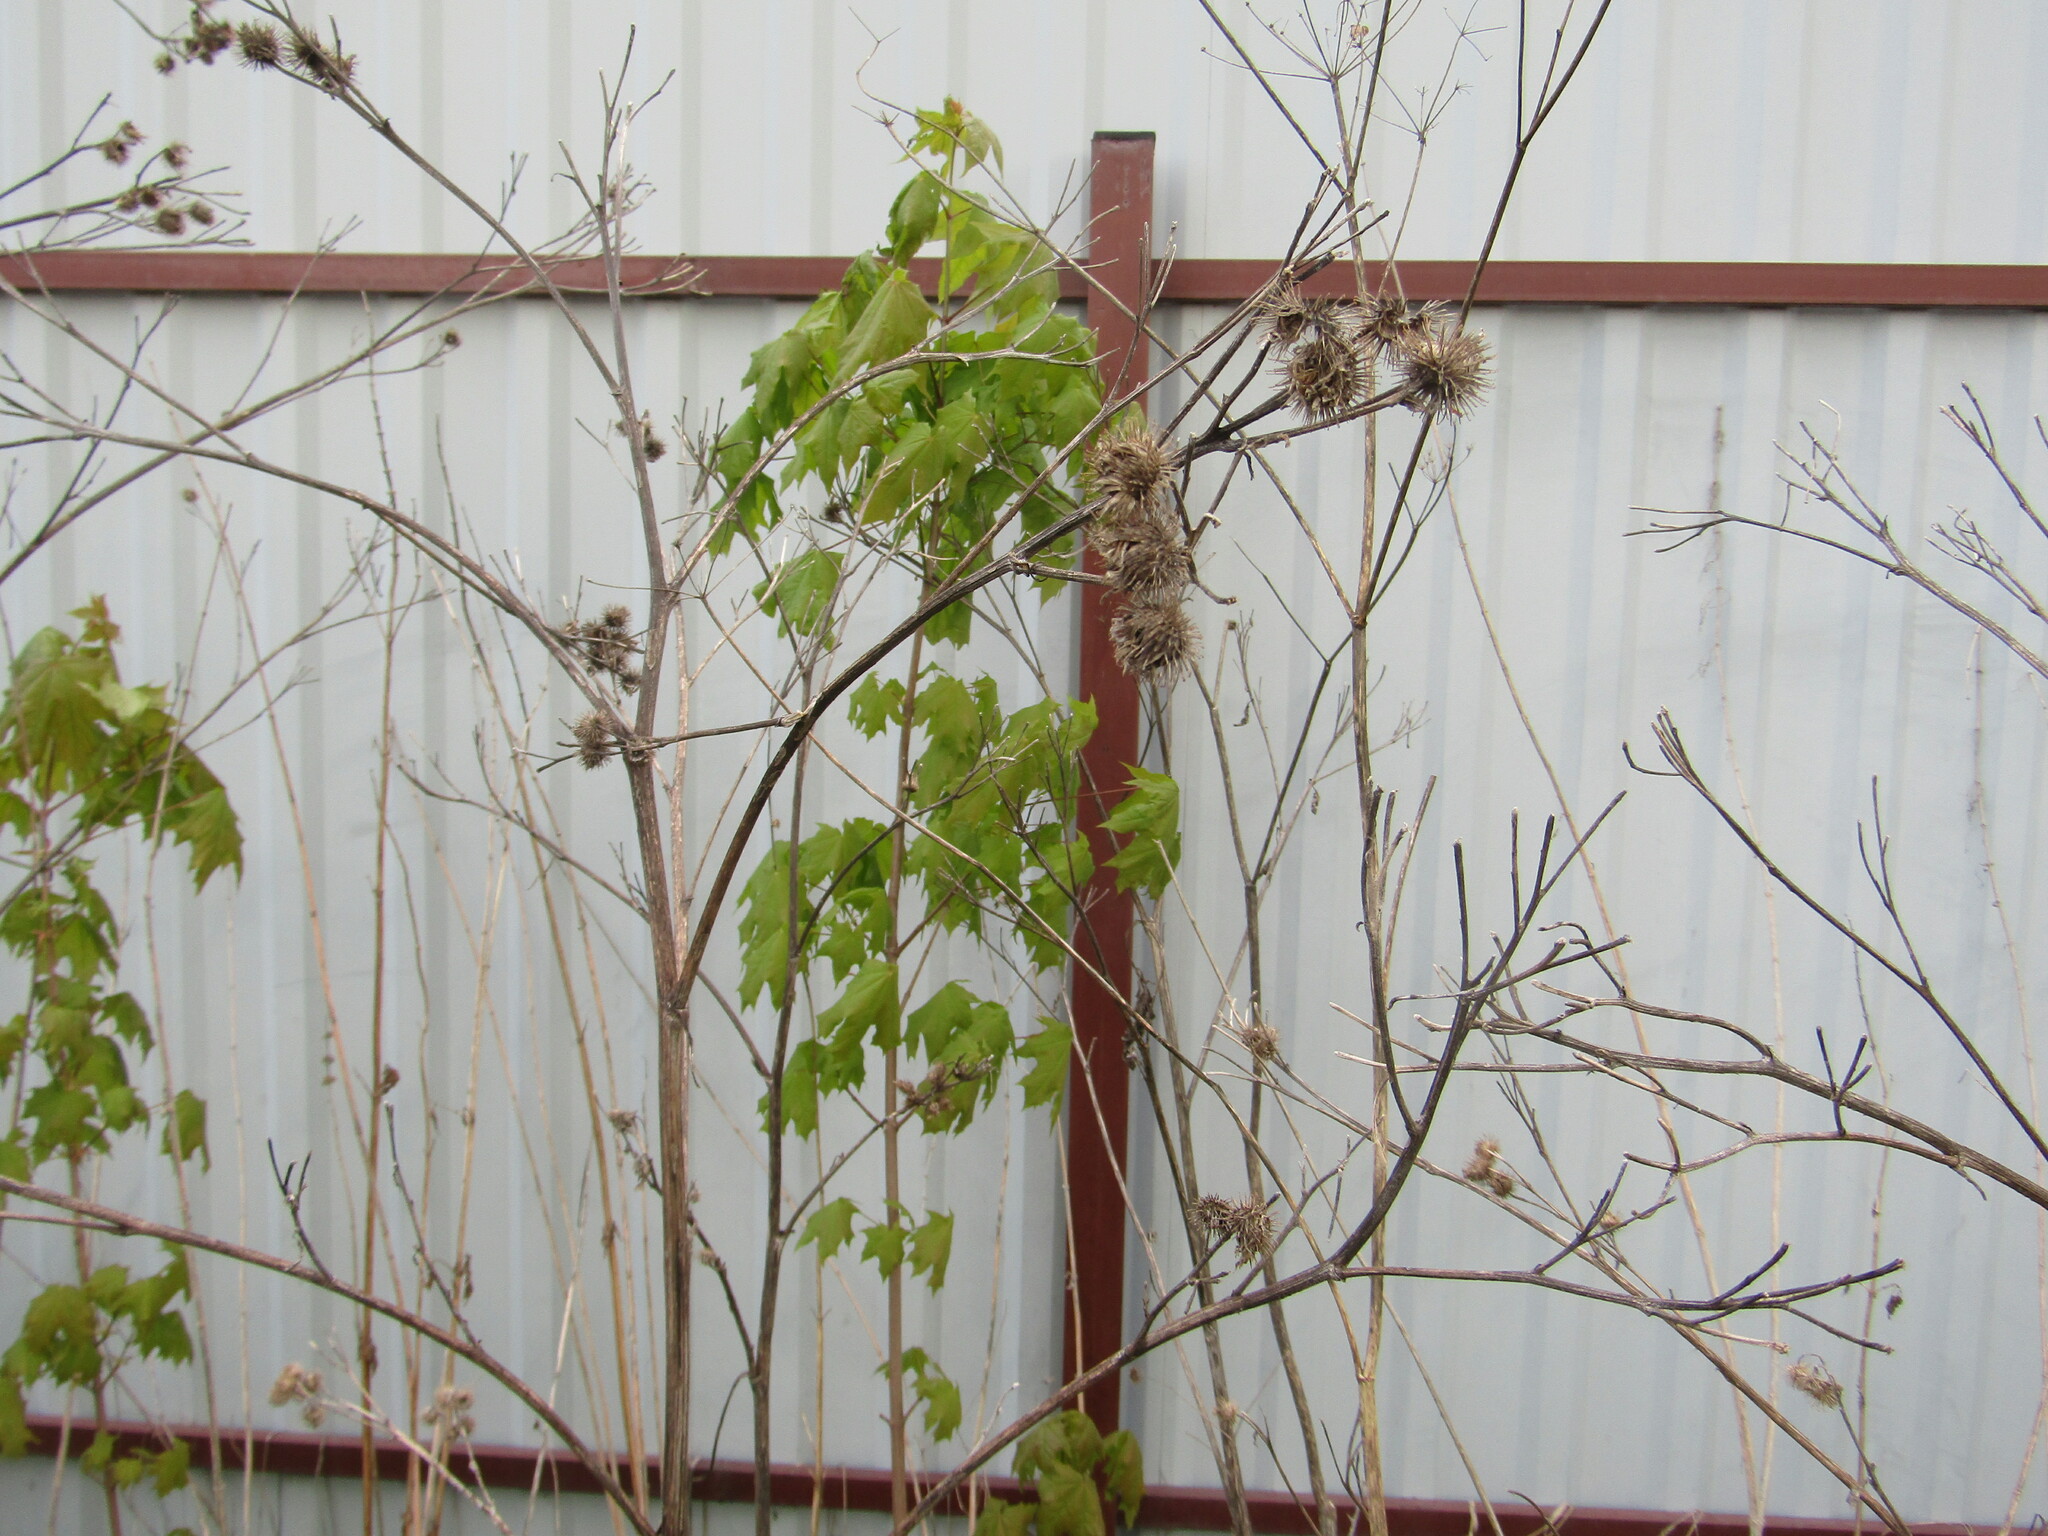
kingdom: Plantae
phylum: Tracheophyta
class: Magnoliopsida
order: Sapindales
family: Sapindaceae
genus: Acer
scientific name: Acer platanoides
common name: Norway maple
